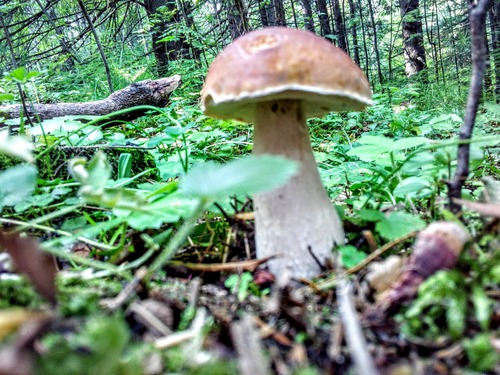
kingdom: Fungi
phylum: Basidiomycota
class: Agaricomycetes
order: Boletales
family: Boletaceae
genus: Boletus
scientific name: Boletus edulis
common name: Cep
